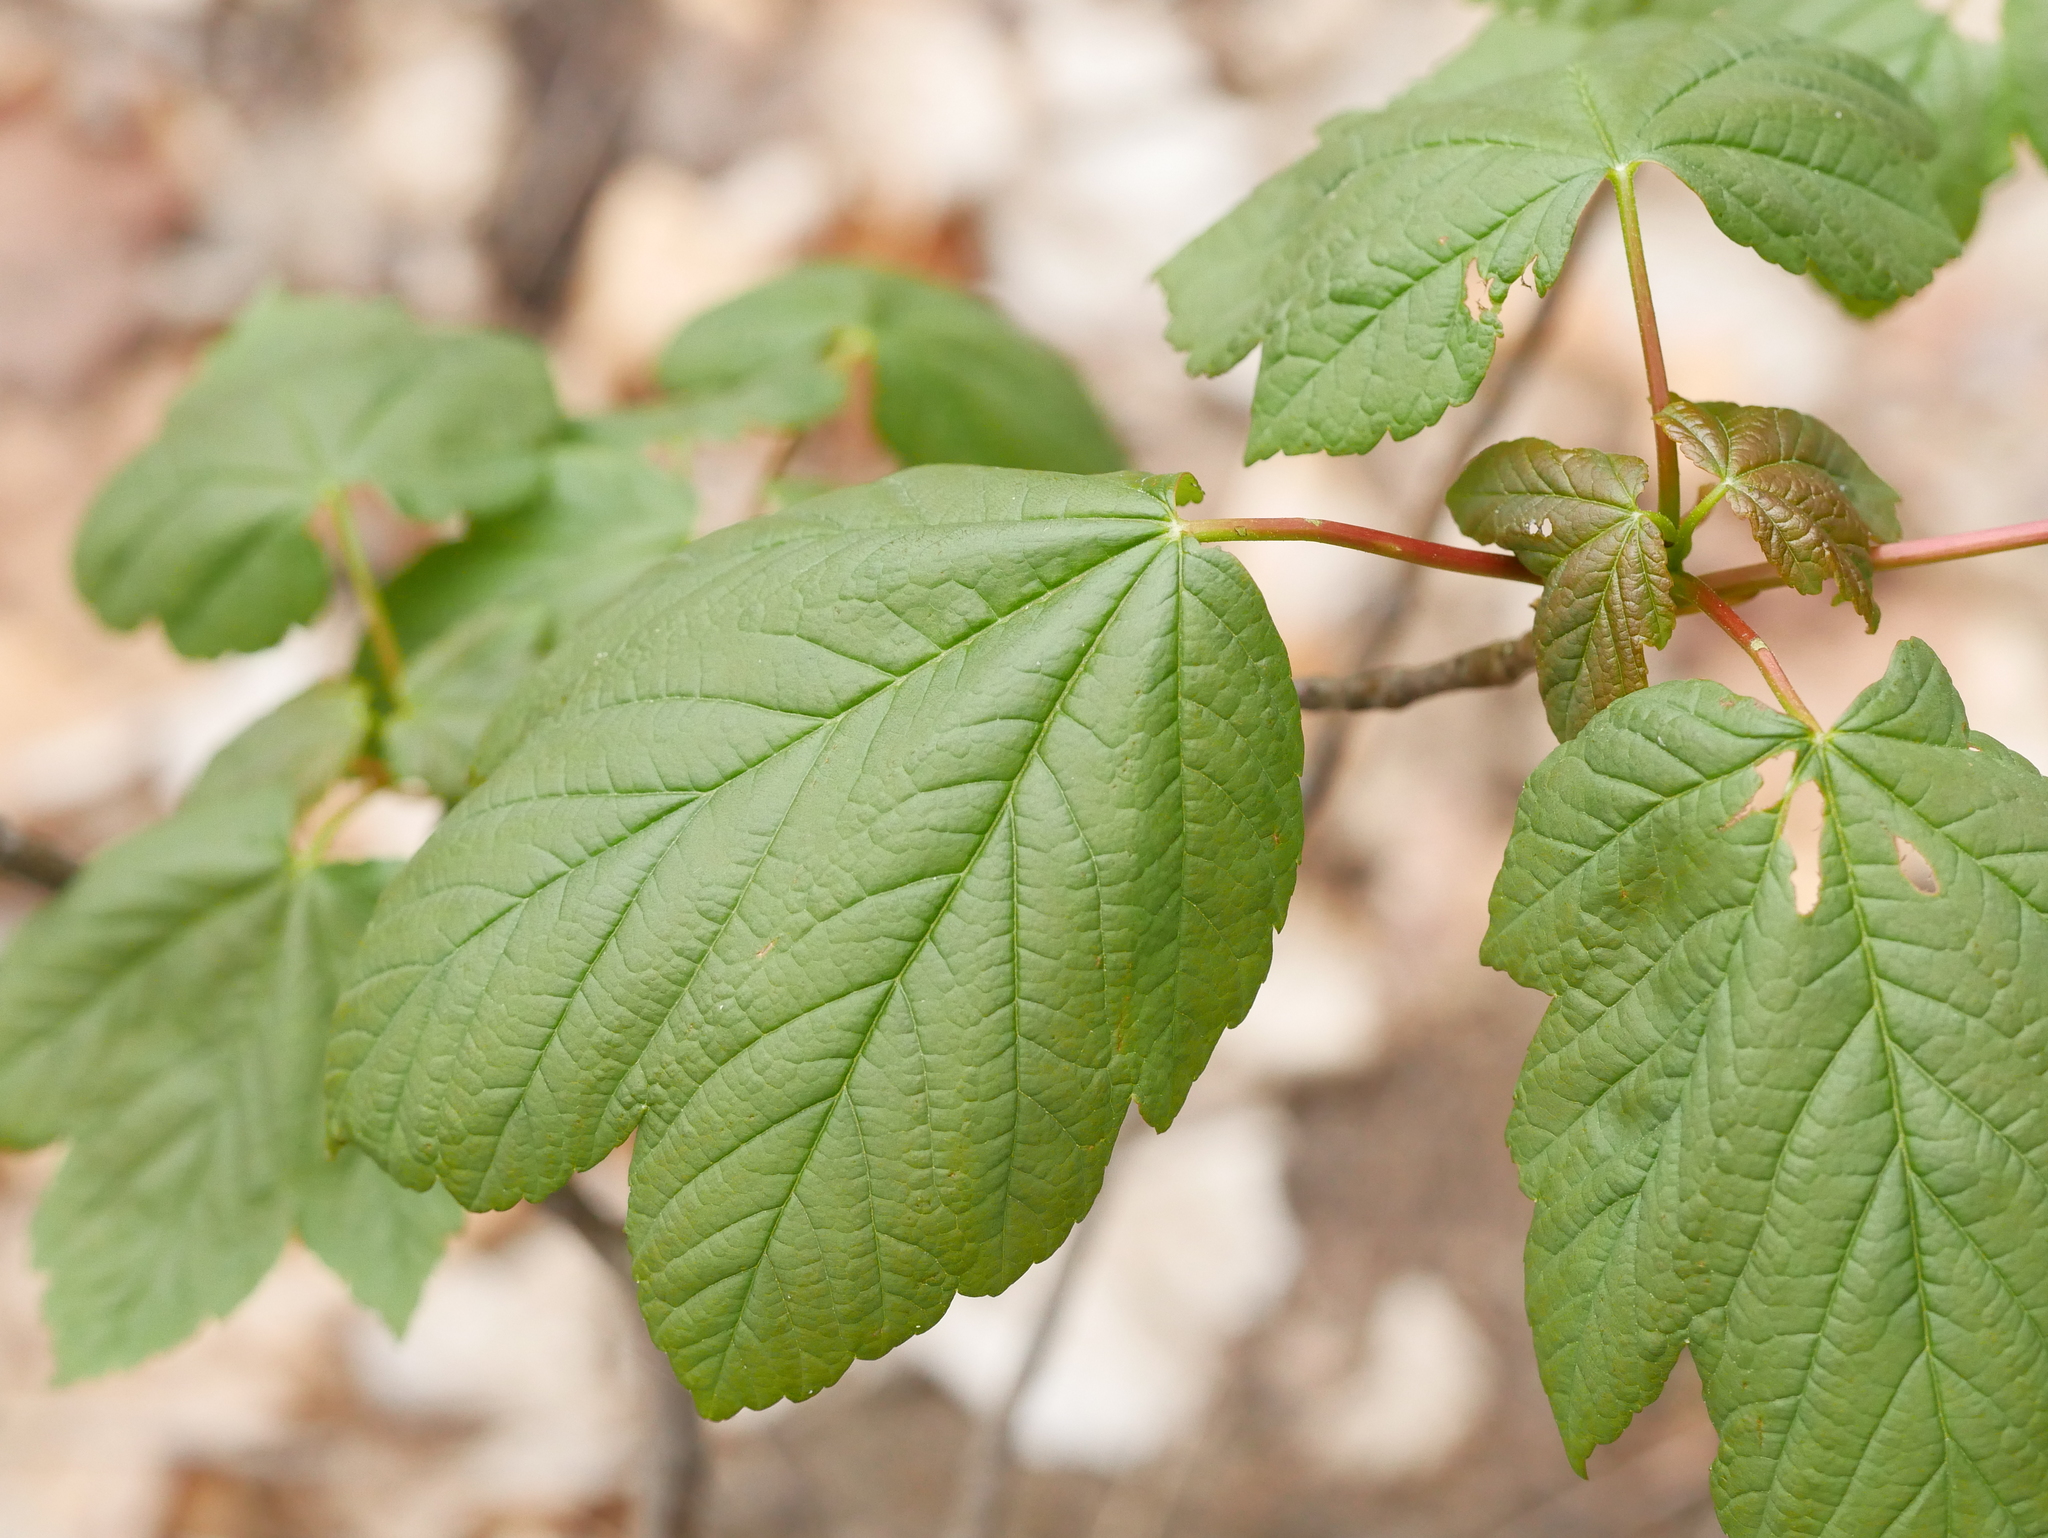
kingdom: Plantae
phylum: Tracheophyta
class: Magnoliopsida
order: Sapindales
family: Sapindaceae
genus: Acer
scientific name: Acer pseudoplatanus
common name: Sycamore
